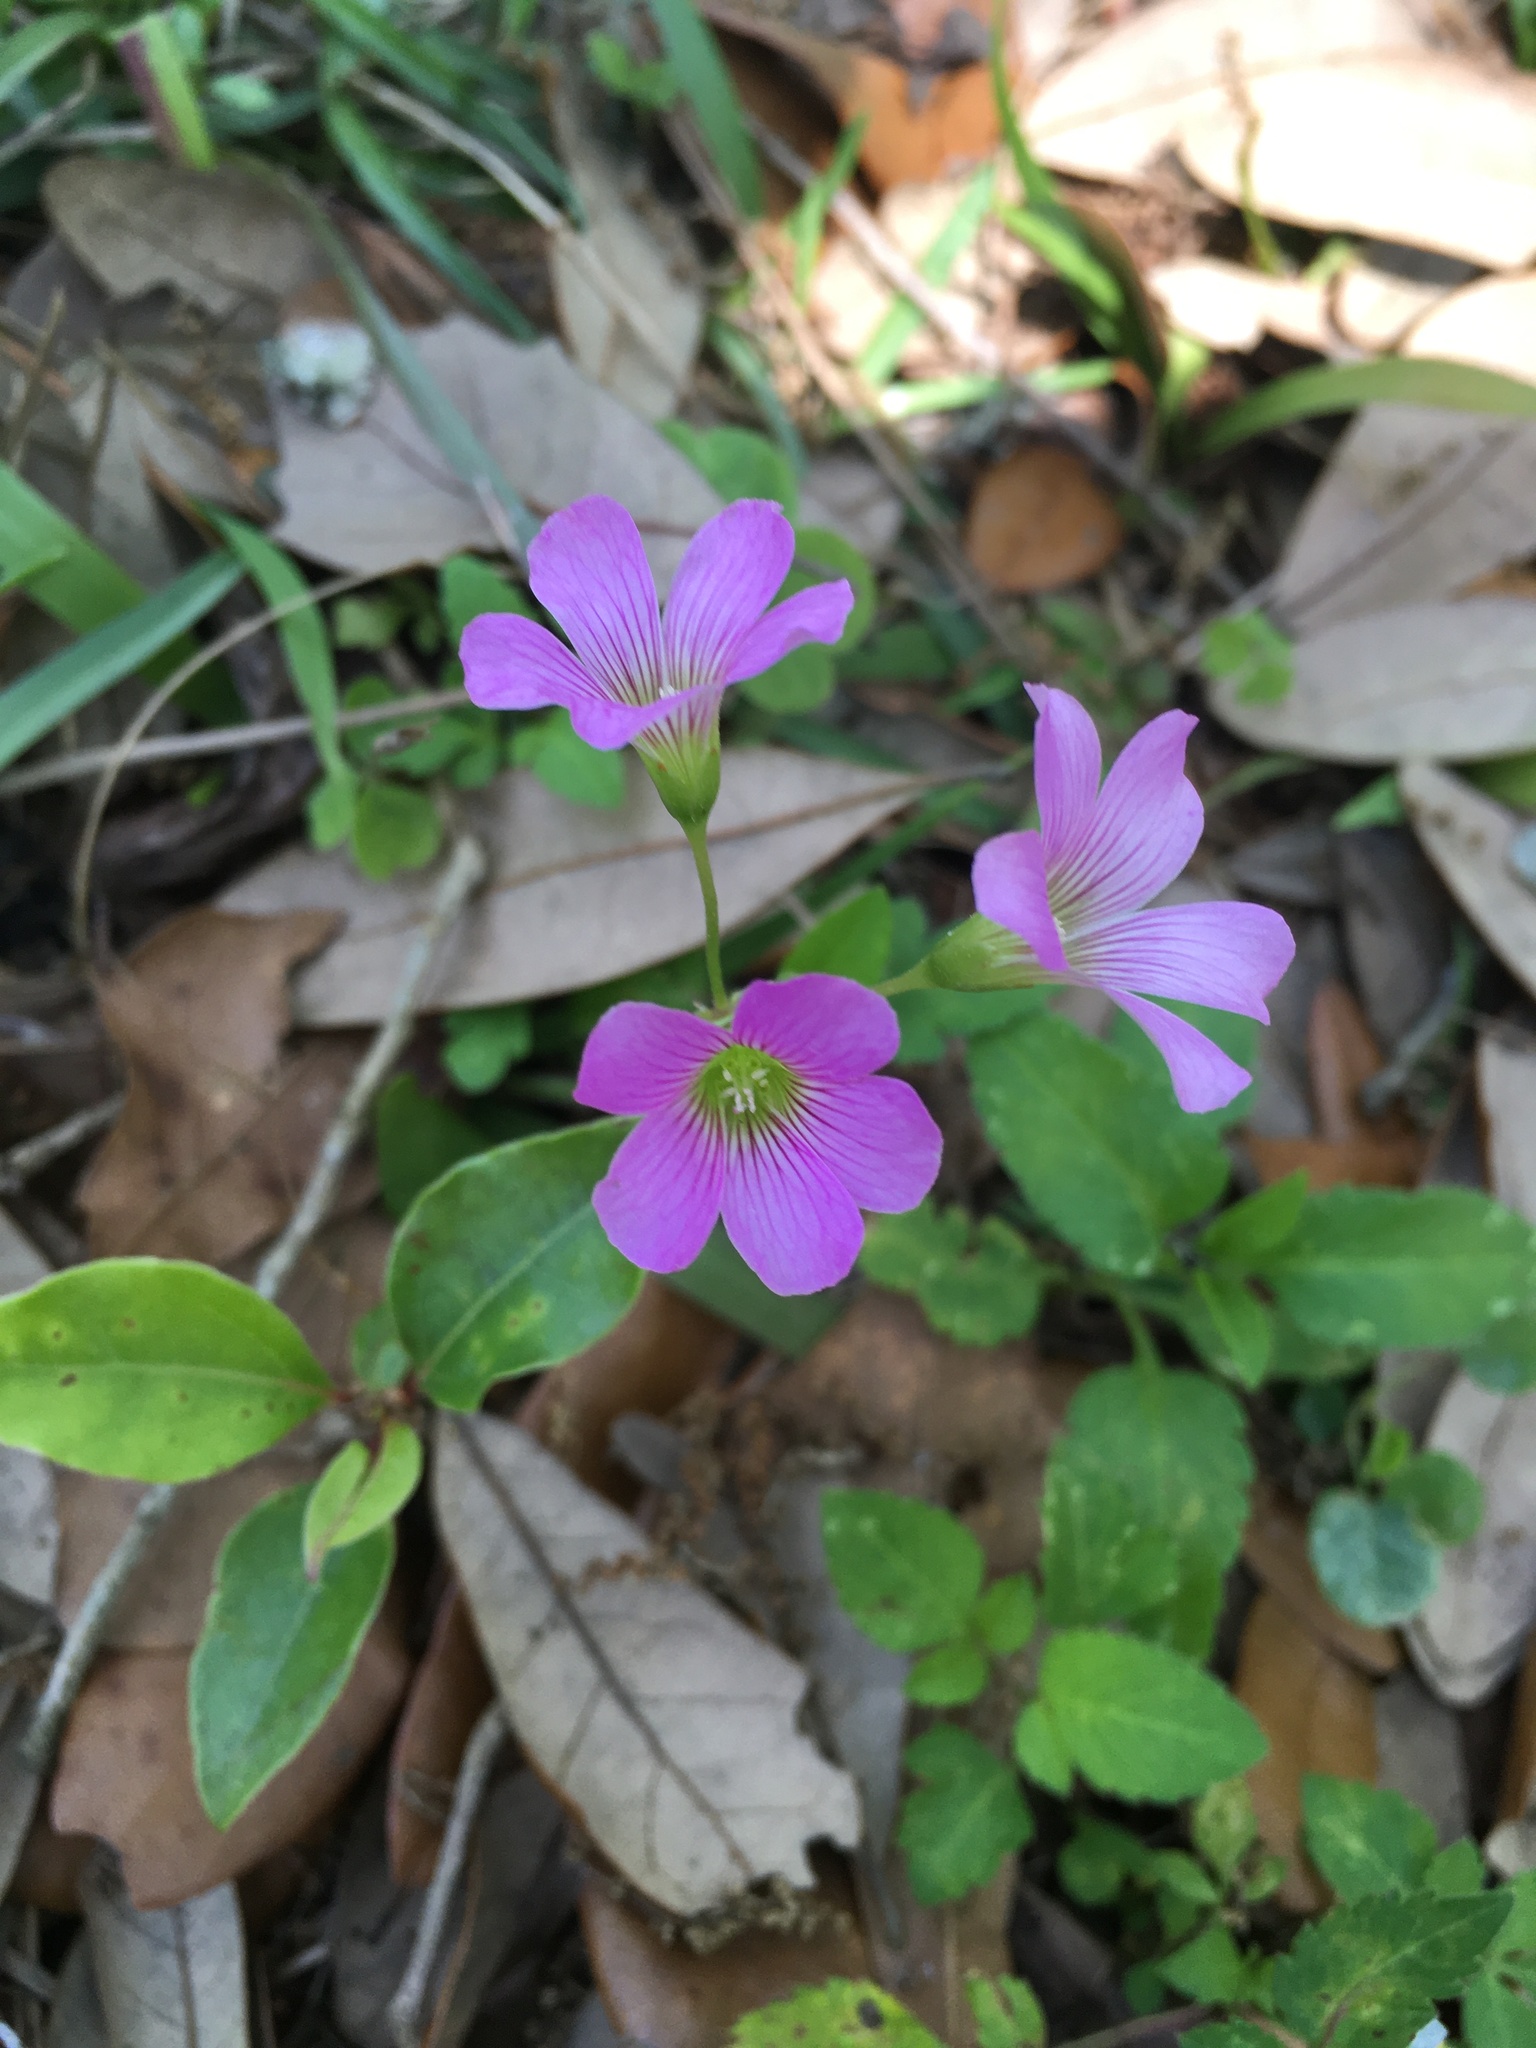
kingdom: Plantae
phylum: Tracheophyta
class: Magnoliopsida
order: Oxalidales
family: Oxalidaceae
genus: Oxalis
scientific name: Oxalis debilis
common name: Large-flowered pink-sorrel
